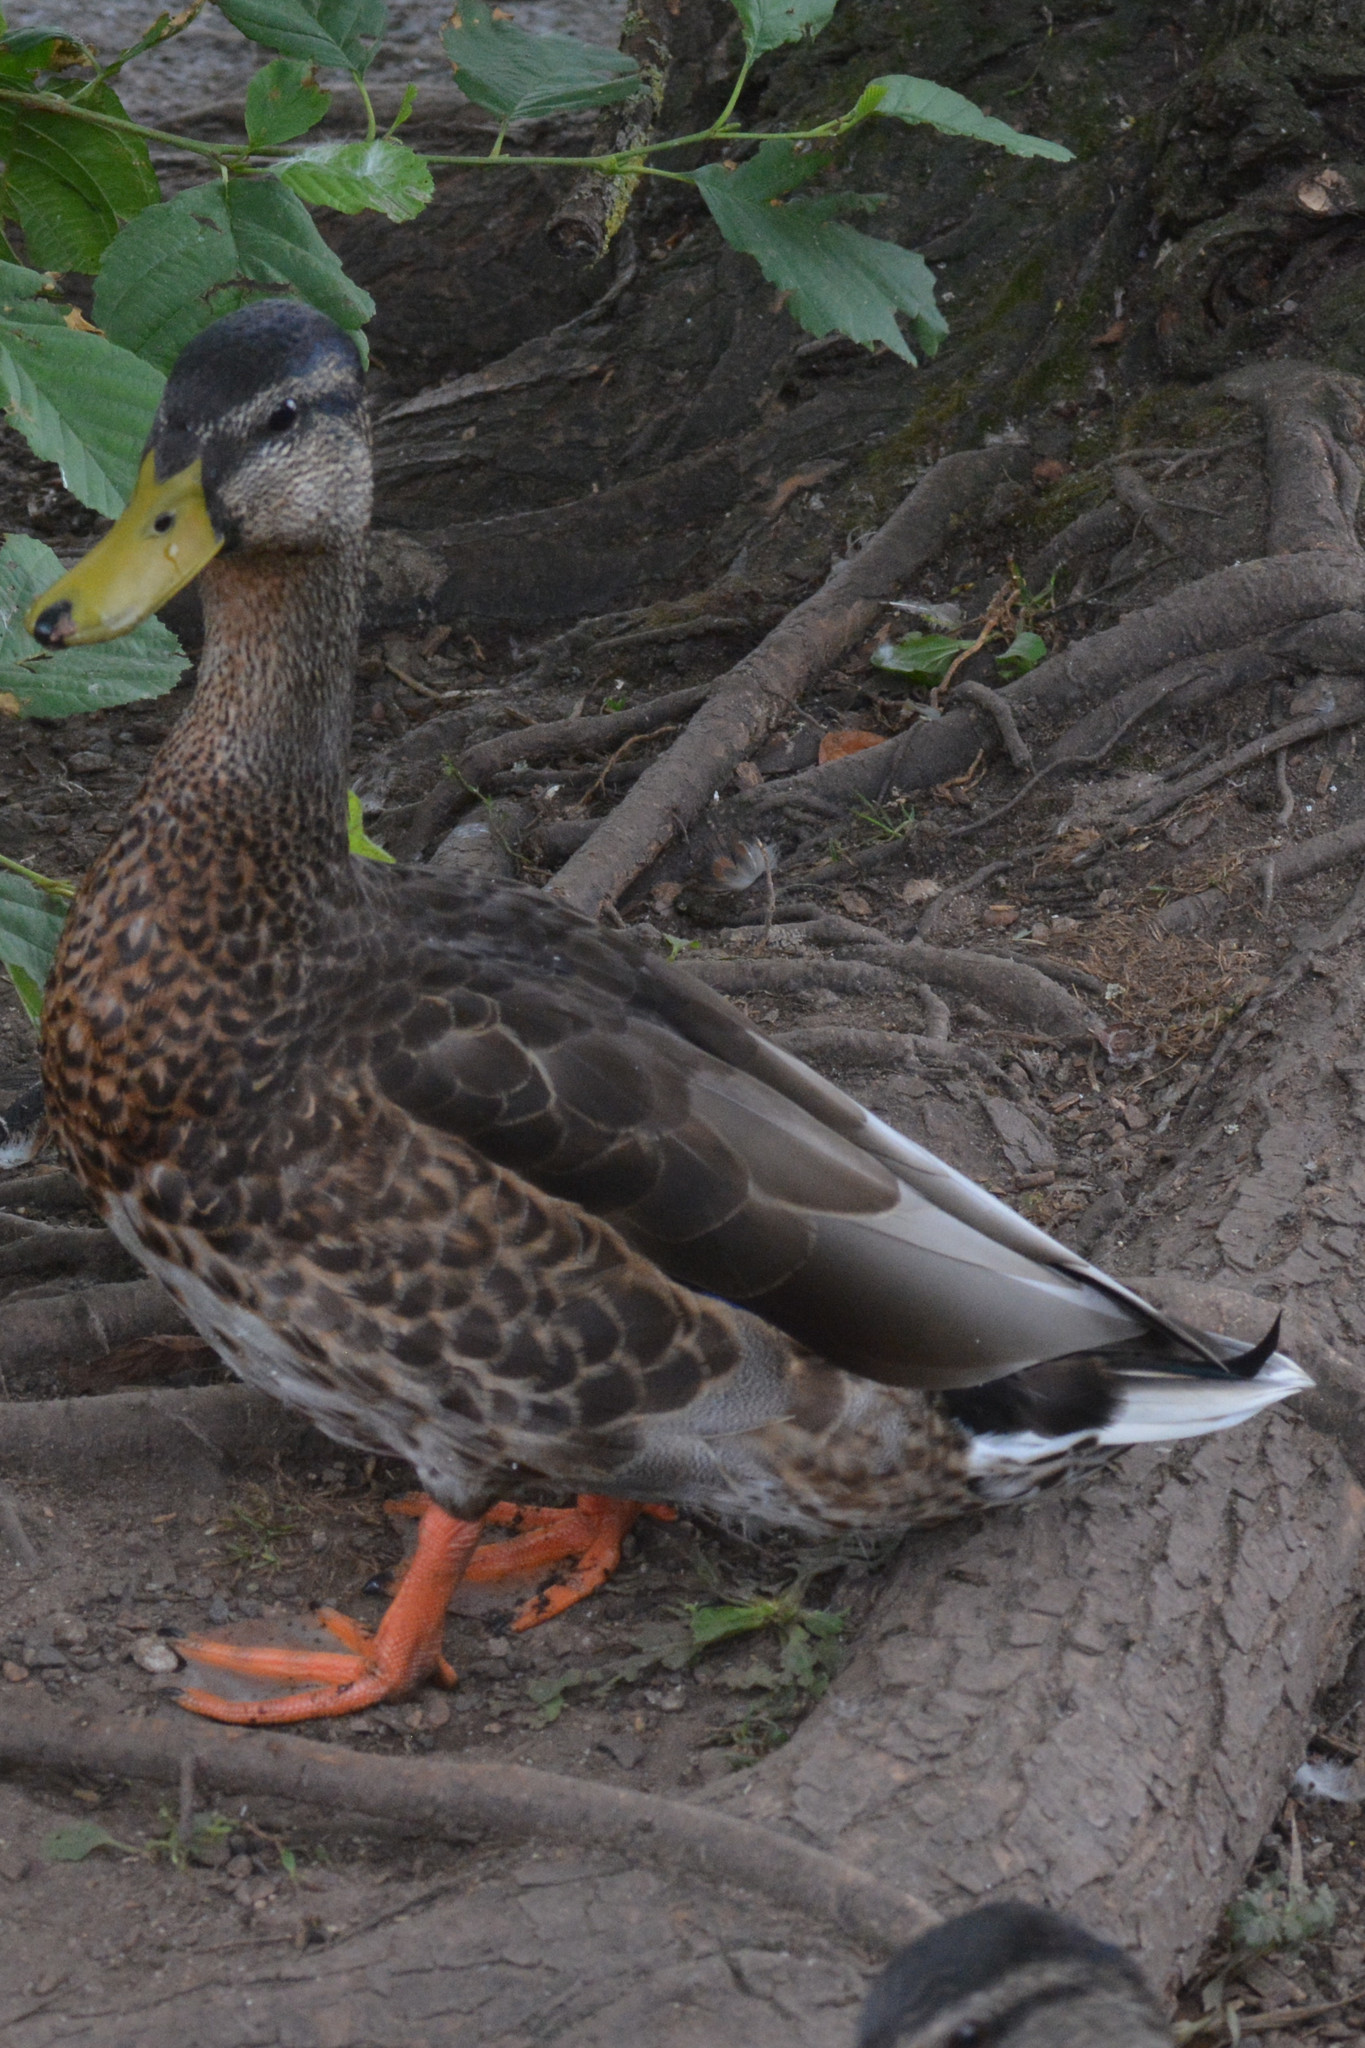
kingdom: Animalia
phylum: Chordata
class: Aves
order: Anseriformes
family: Anatidae
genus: Anas
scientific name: Anas platyrhynchos
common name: Mallard
